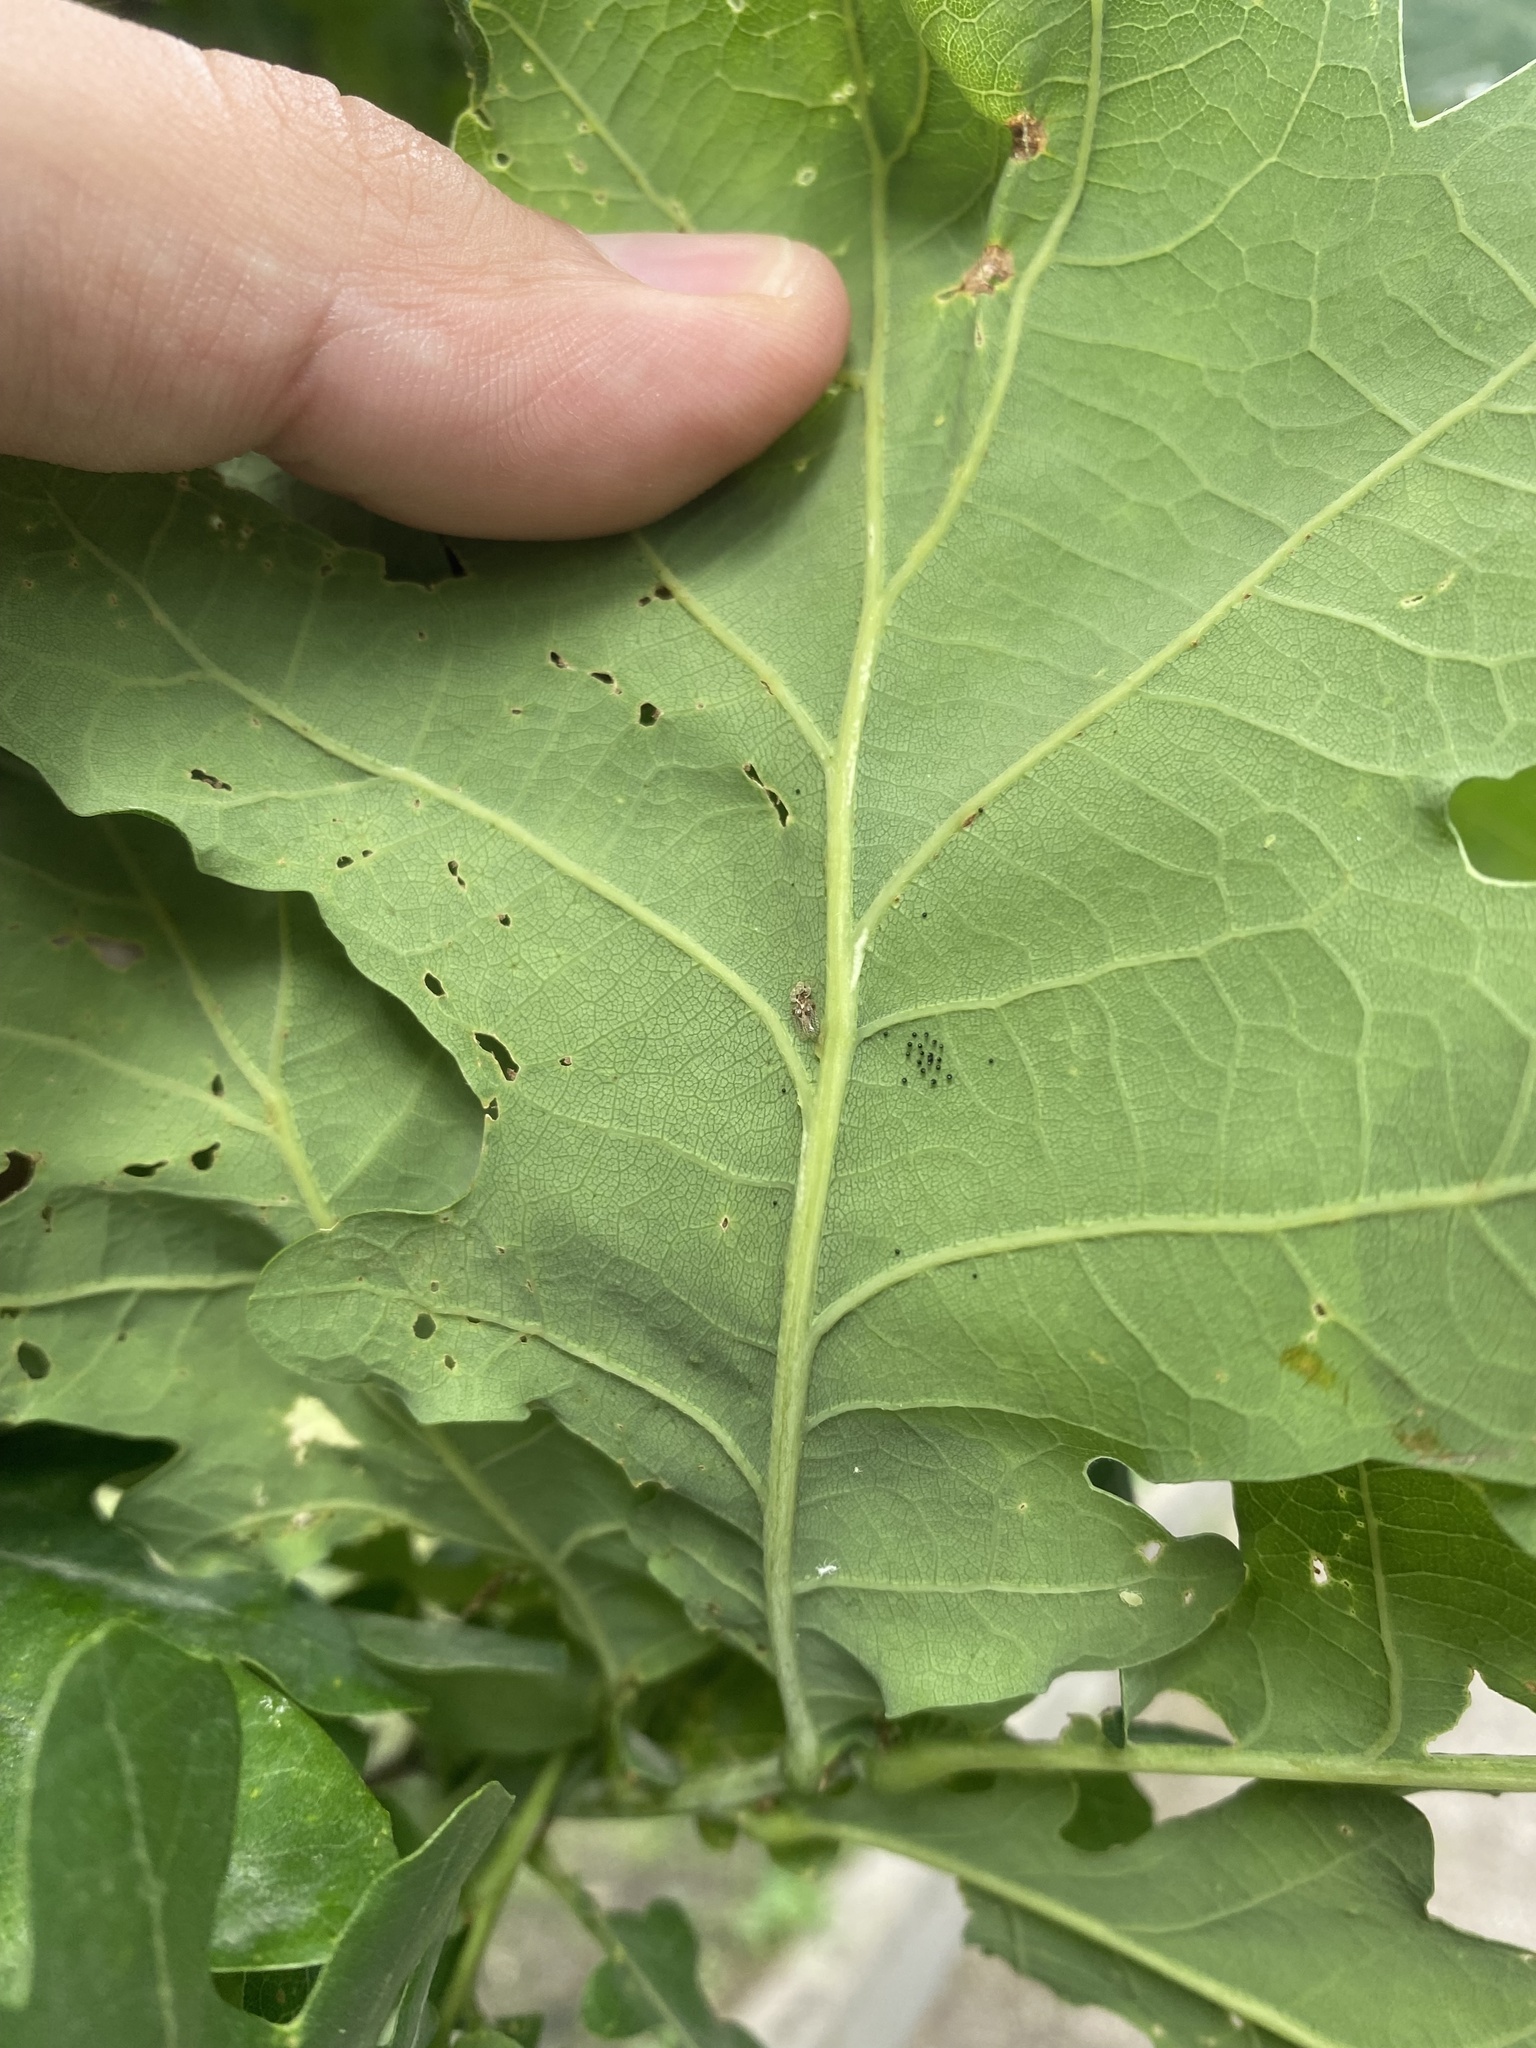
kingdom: Animalia
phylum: Arthropoda
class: Insecta
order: Hemiptera
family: Tingidae
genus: Corythucha
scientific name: Corythucha arcuata
